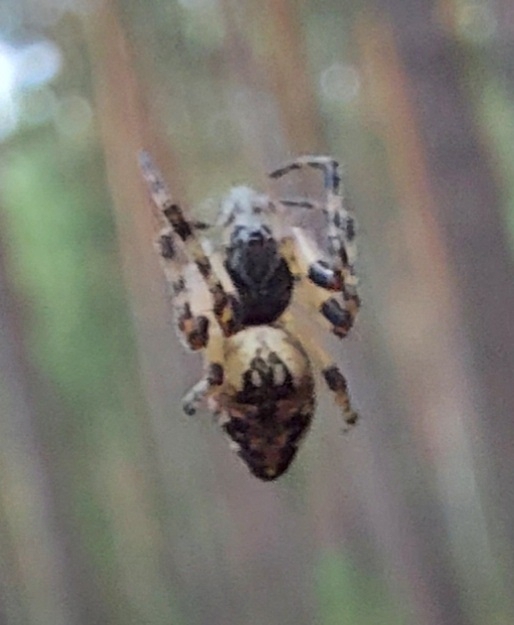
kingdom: Animalia
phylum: Arthropoda
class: Arachnida
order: Araneae
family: Araneidae
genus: Cyclosa
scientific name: Cyclosa conica
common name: Conical trashline orbweaver
